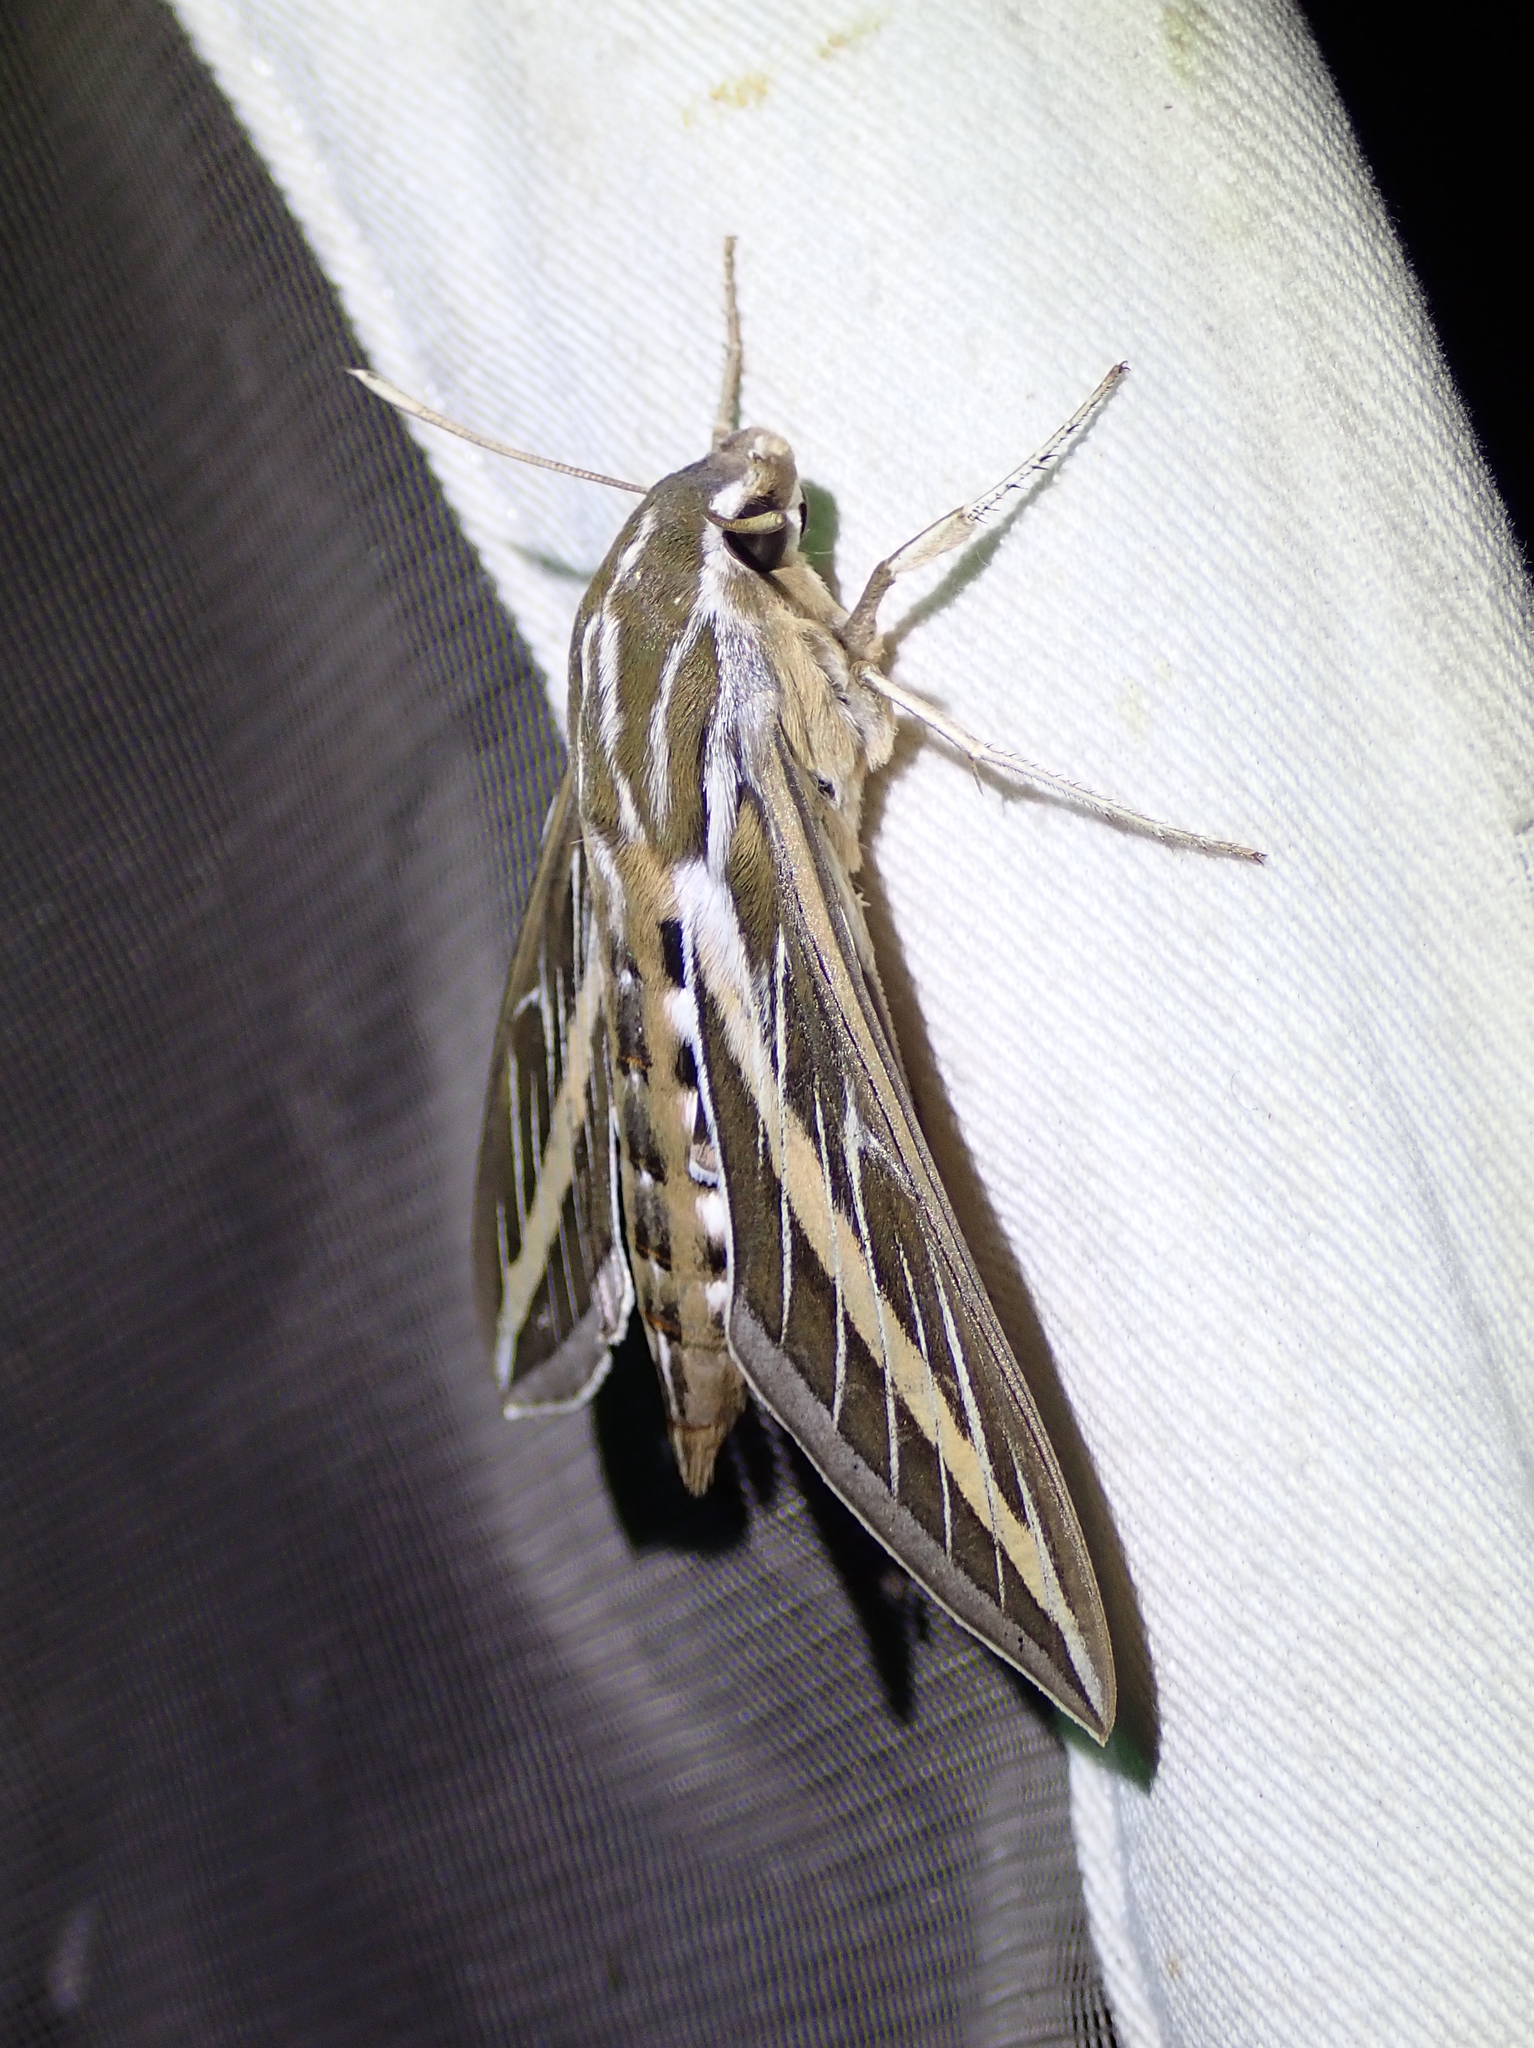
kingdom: Animalia
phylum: Arthropoda
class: Insecta
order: Lepidoptera
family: Sphingidae
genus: Hyles
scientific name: Hyles lineata
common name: White-lined sphinx
